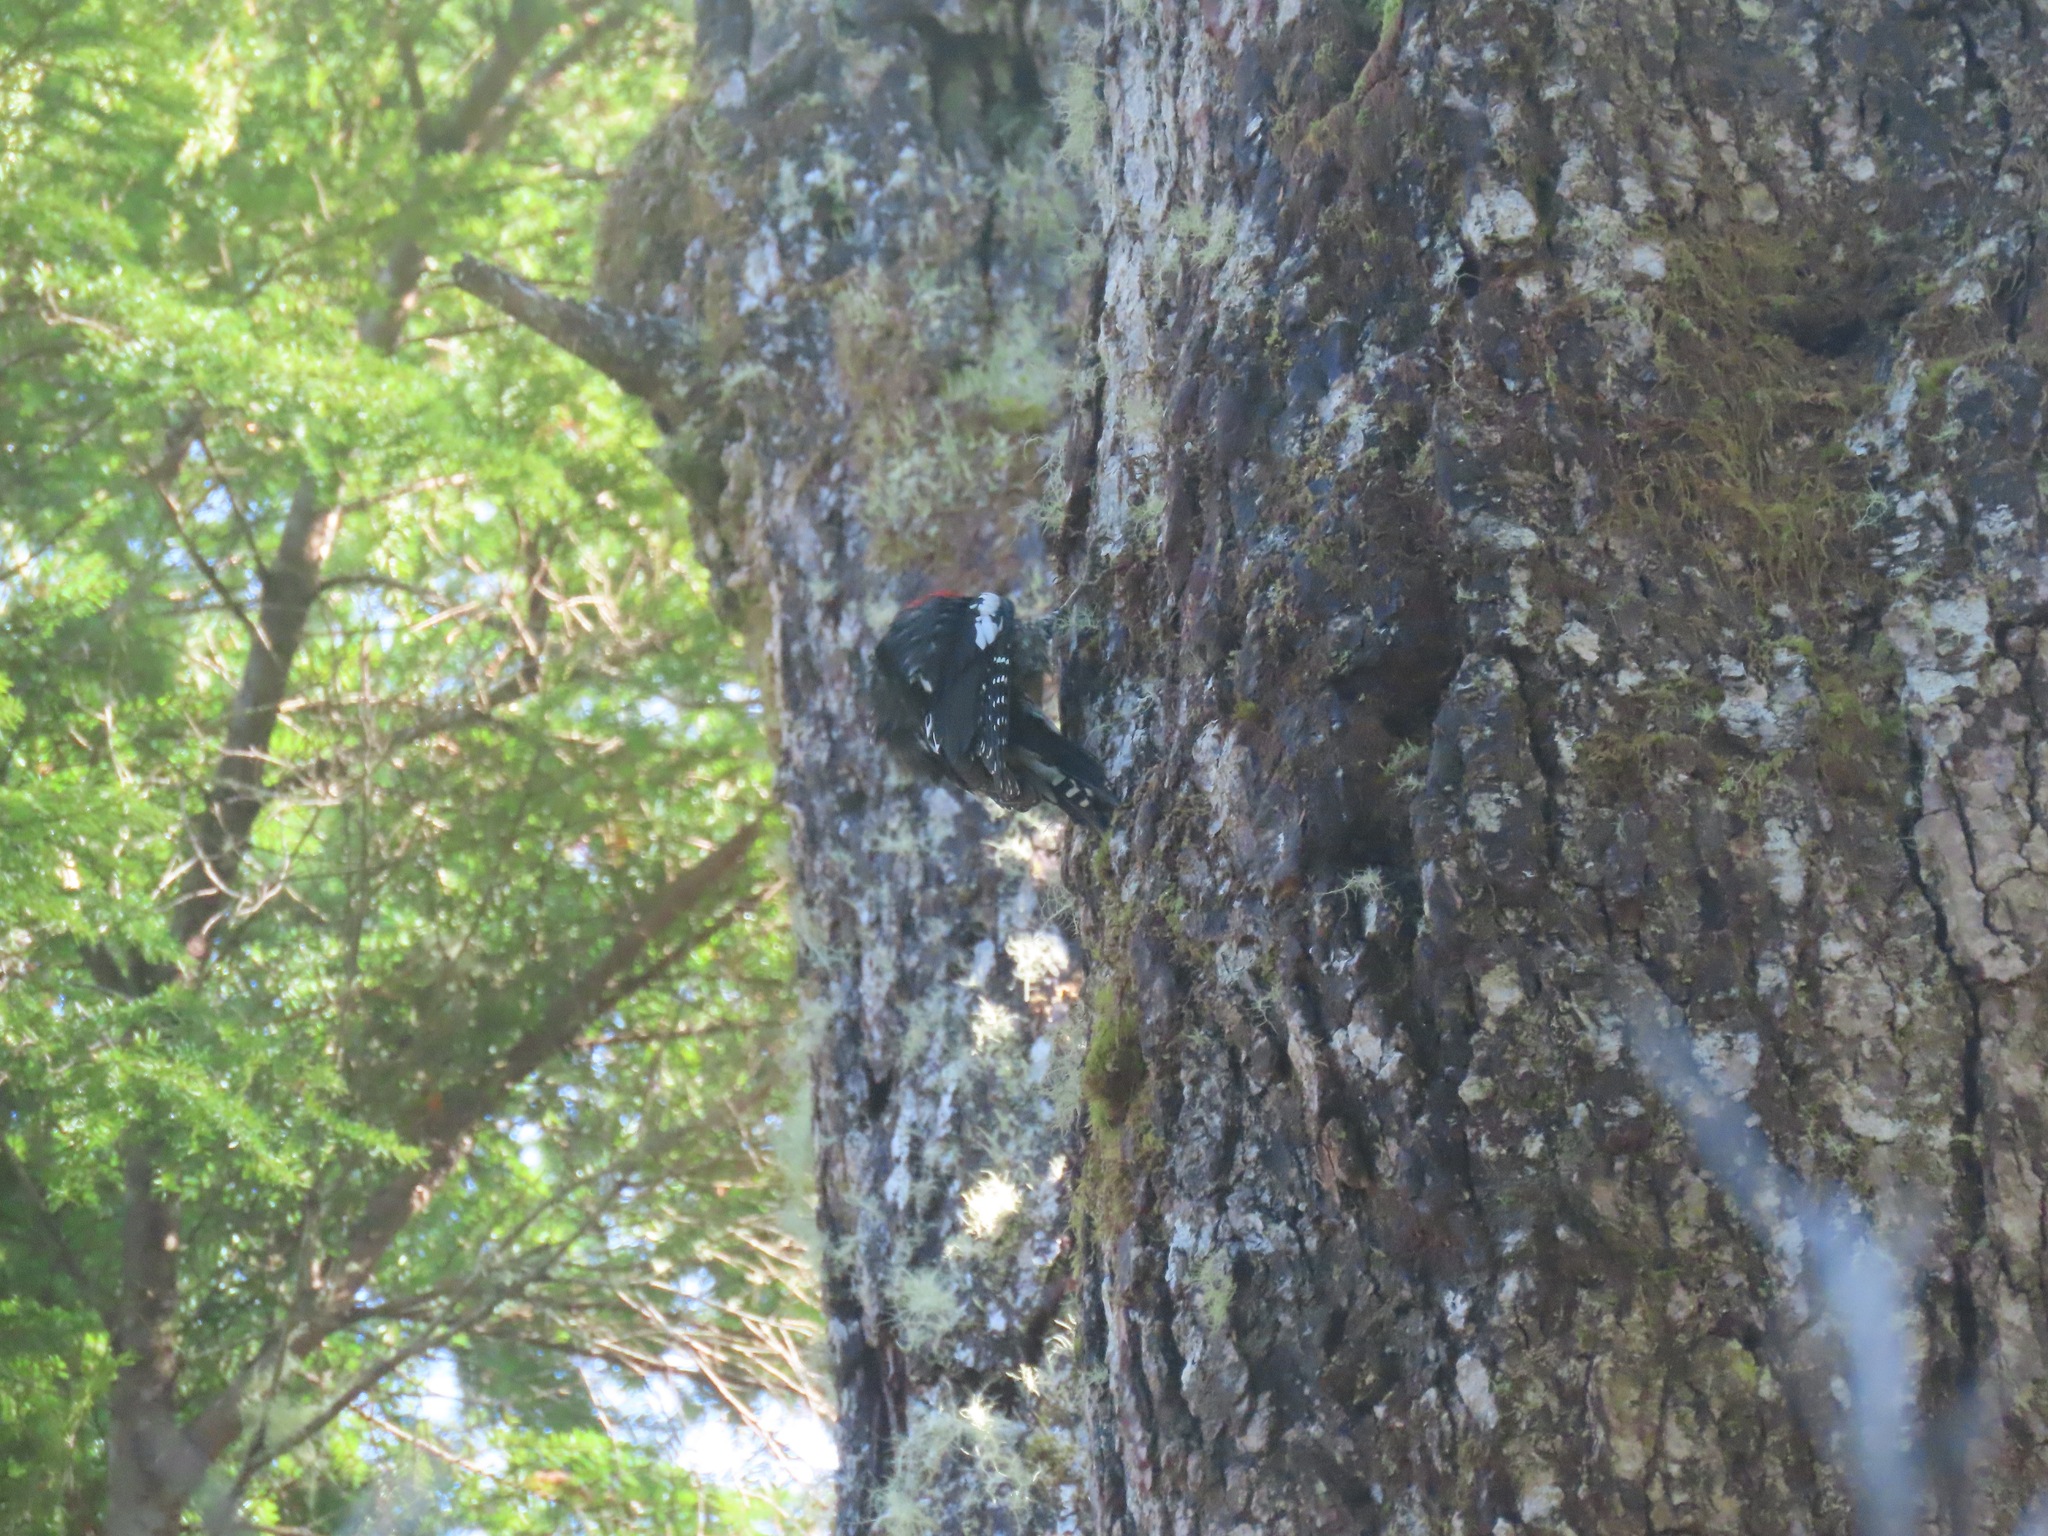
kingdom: Animalia
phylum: Chordata
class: Aves
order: Piciformes
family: Picidae
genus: Sphyrapicus
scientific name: Sphyrapicus ruber
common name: Red-breasted sapsucker
